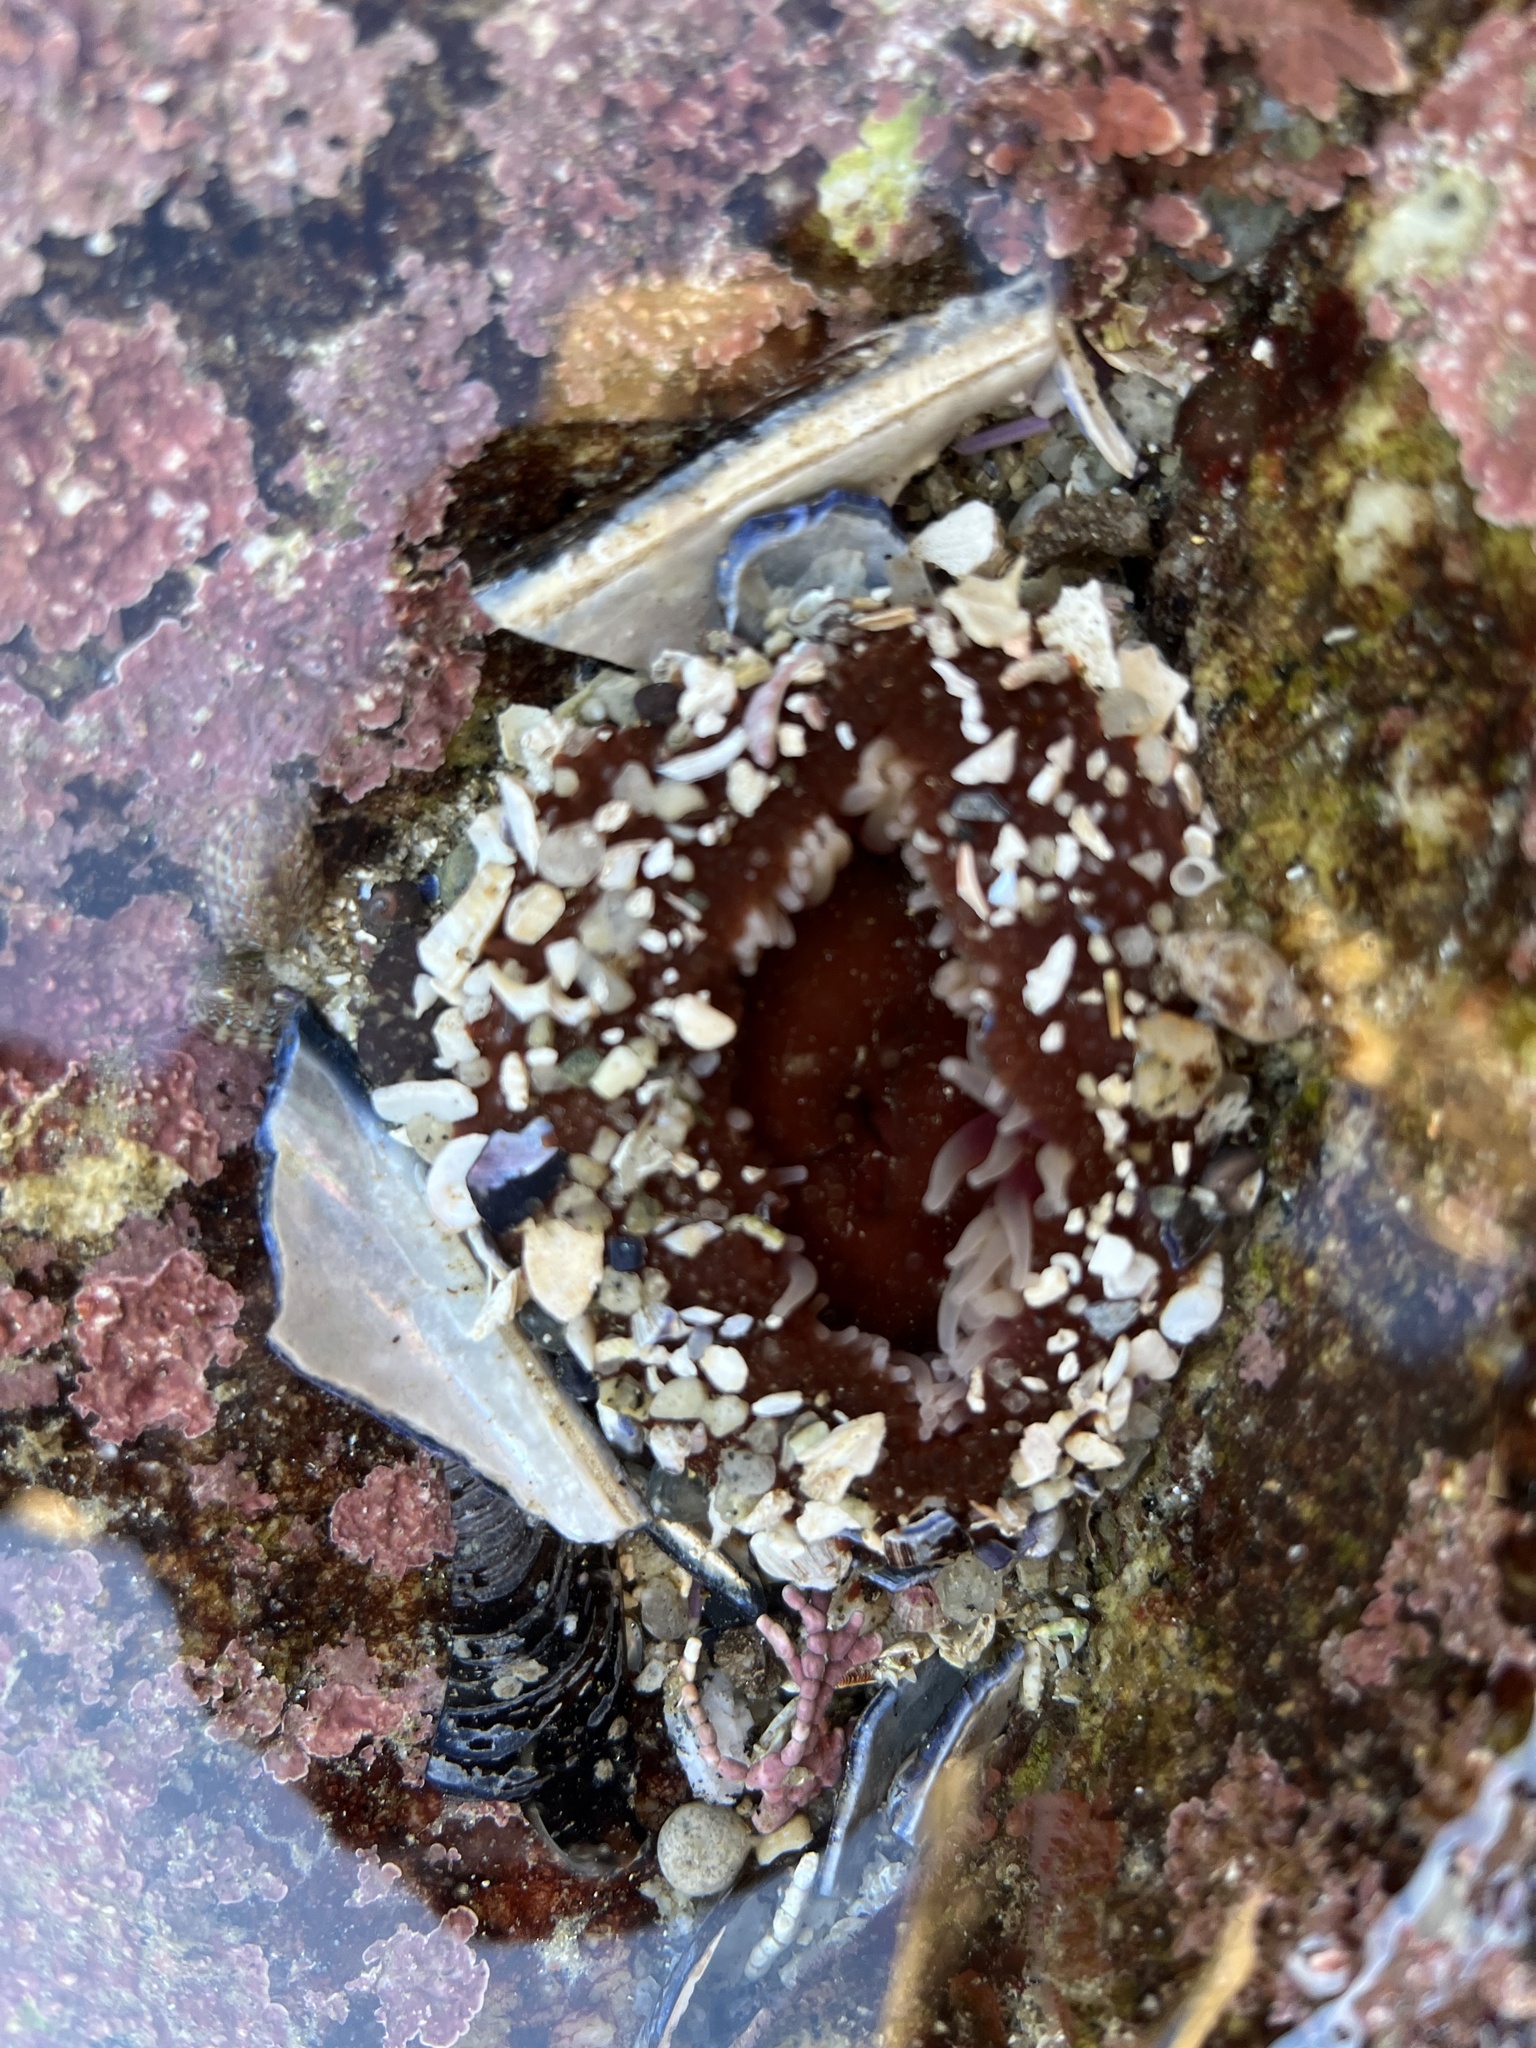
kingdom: Animalia
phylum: Cnidaria
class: Anthozoa
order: Actiniaria
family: Actiniidae
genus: Urticina
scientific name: Urticina clandestina
